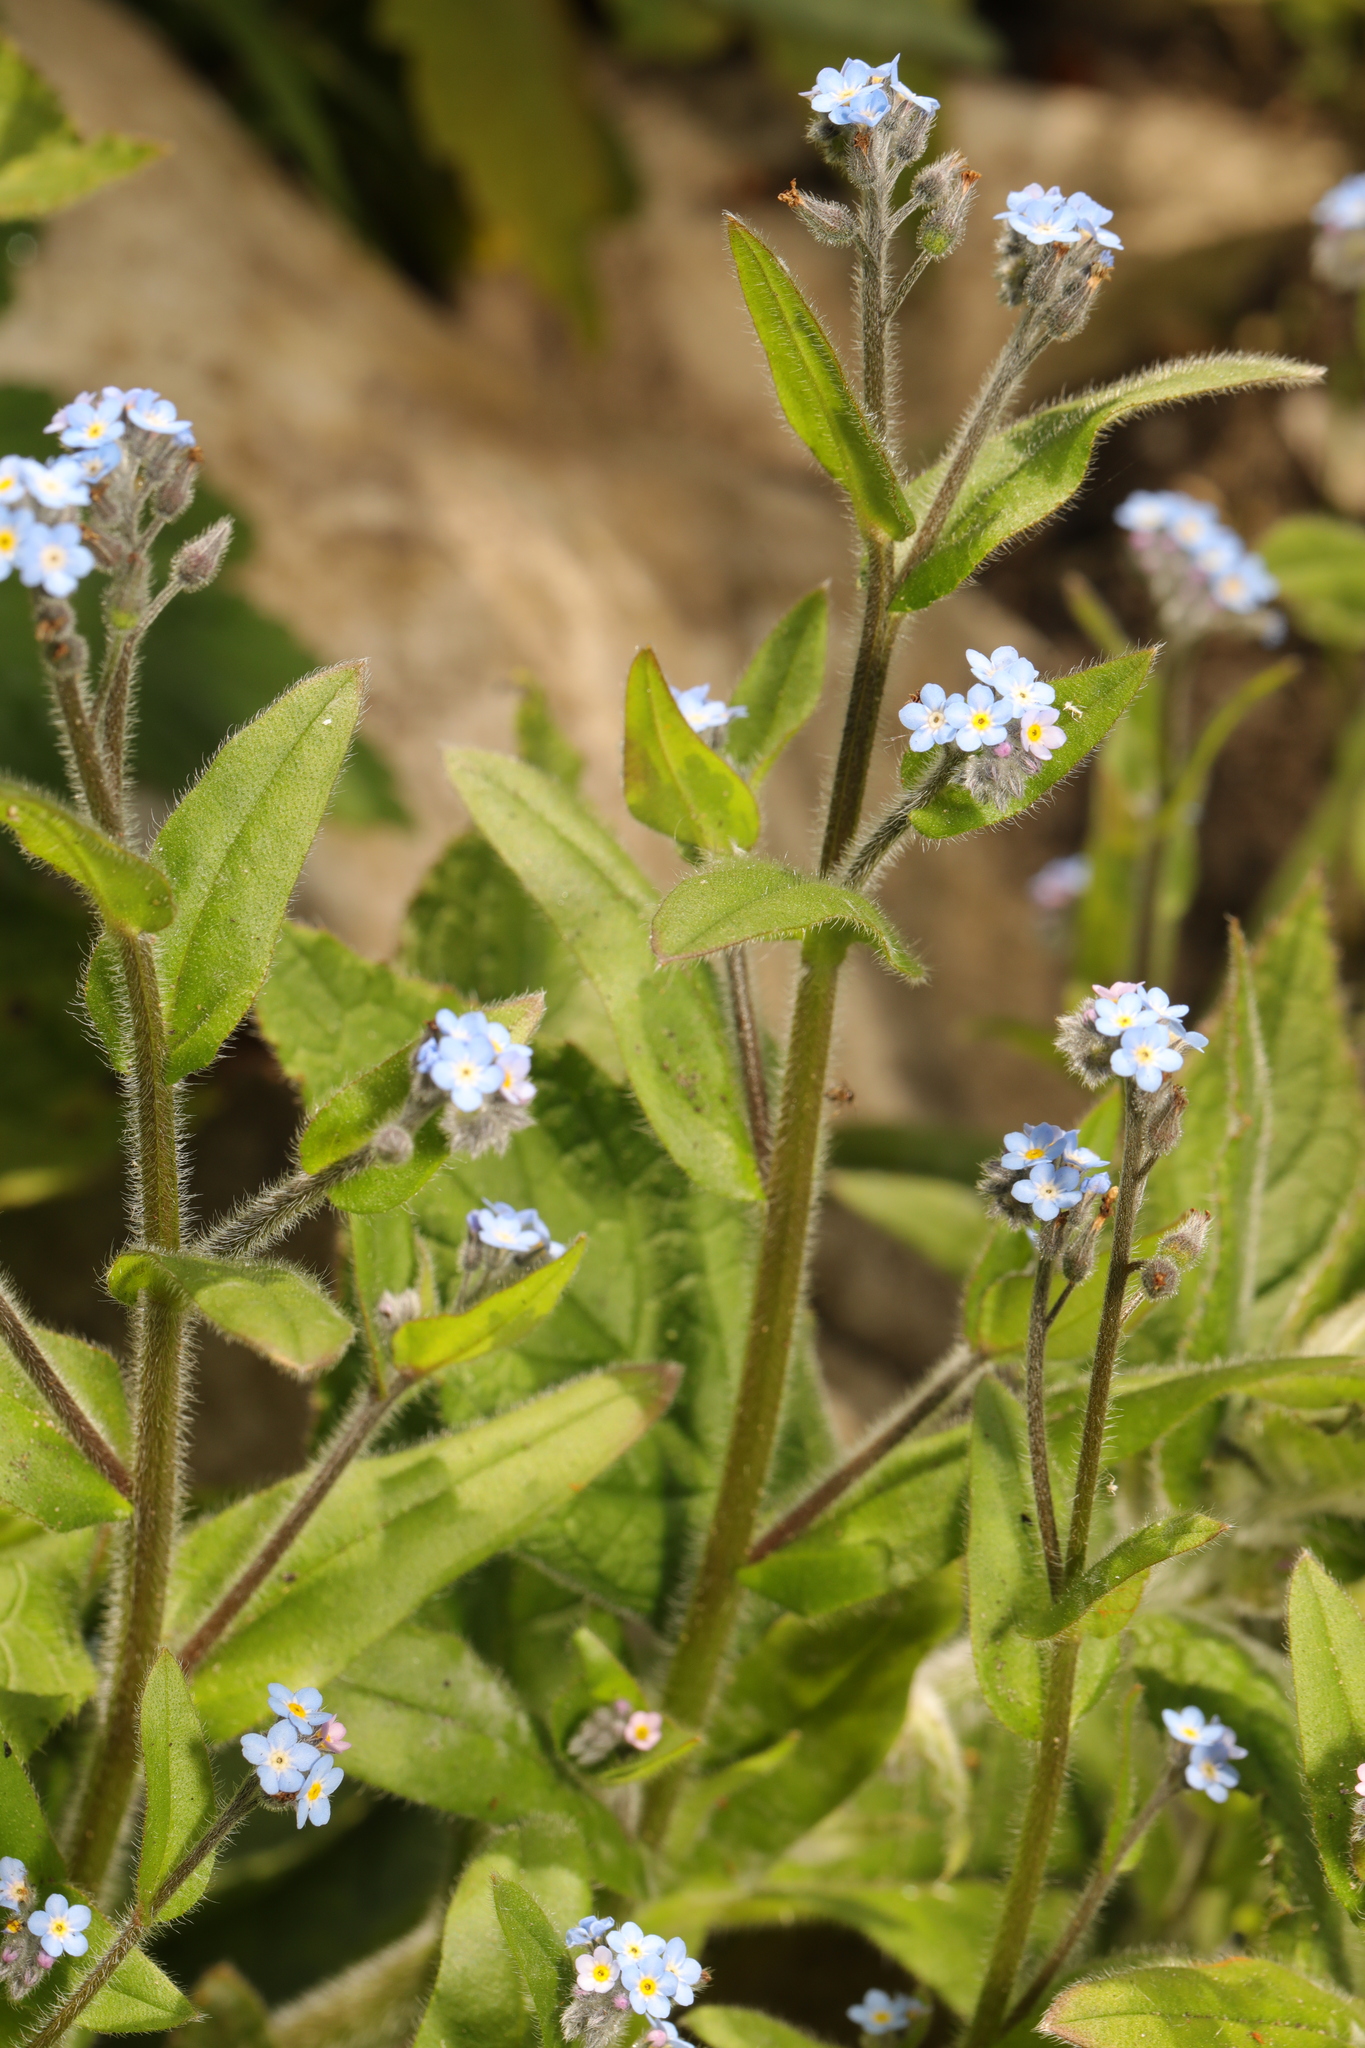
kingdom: Plantae
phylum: Tracheophyta
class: Magnoliopsida
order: Boraginales
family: Boraginaceae
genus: Myosotis
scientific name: Myosotis arvensis
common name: Field forget-me-not
